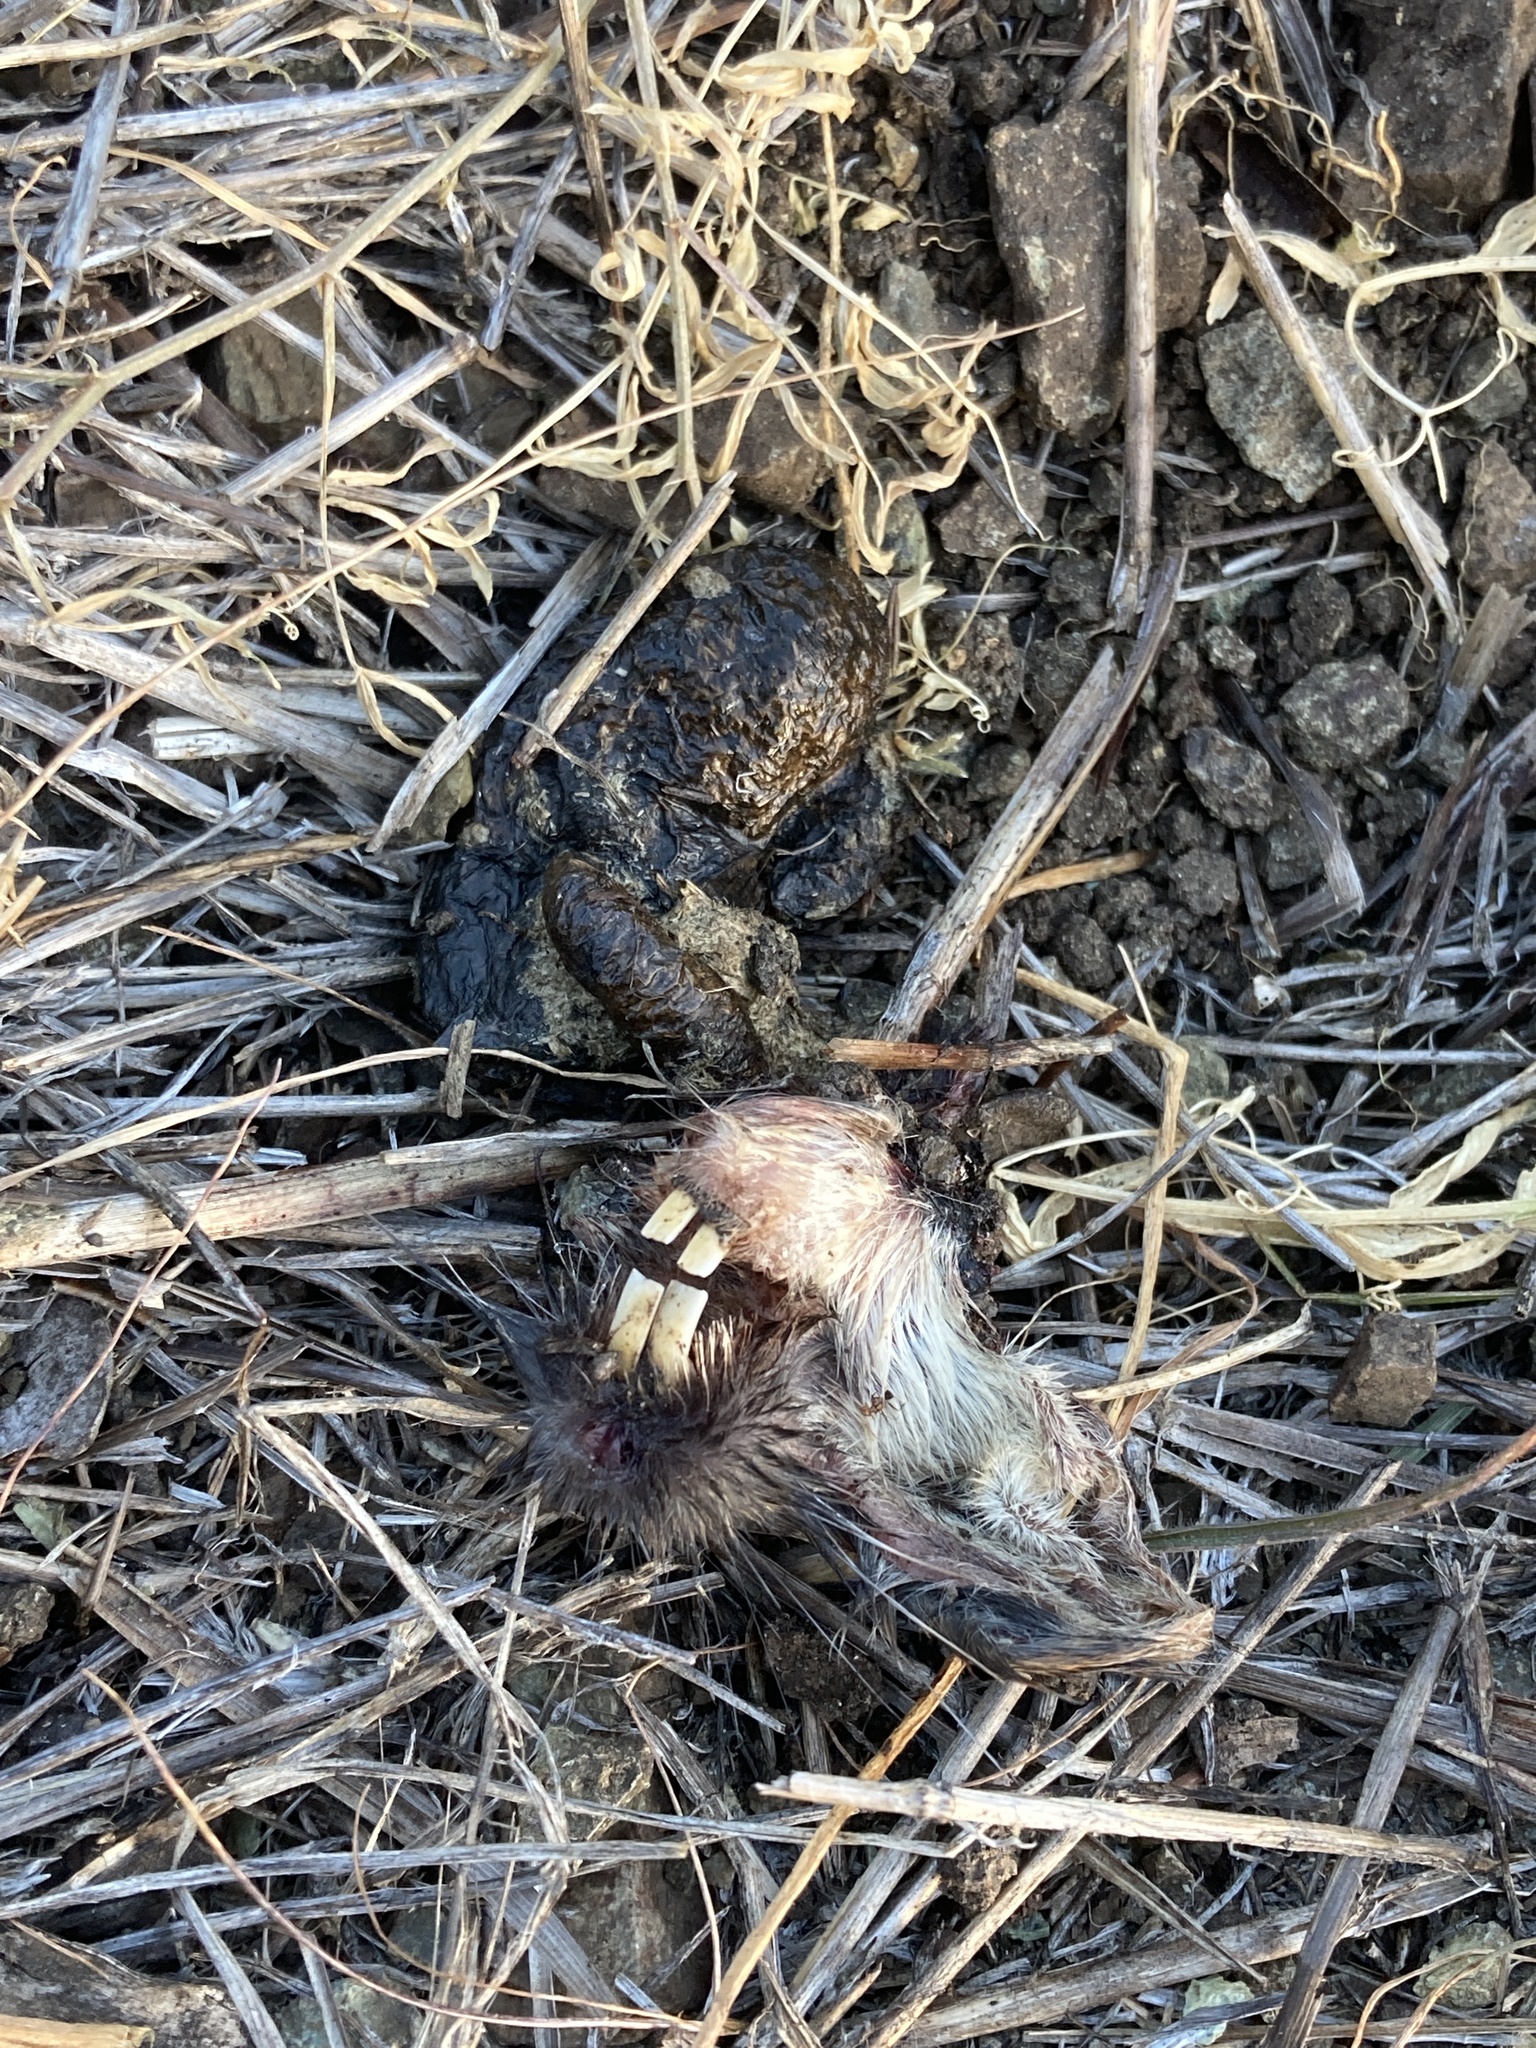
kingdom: Animalia
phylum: Chordata
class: Mammalia
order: Rodentia
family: Geomyidae
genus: Thomomys
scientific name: Thomomys bottae
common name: Botta's pocket gopher
